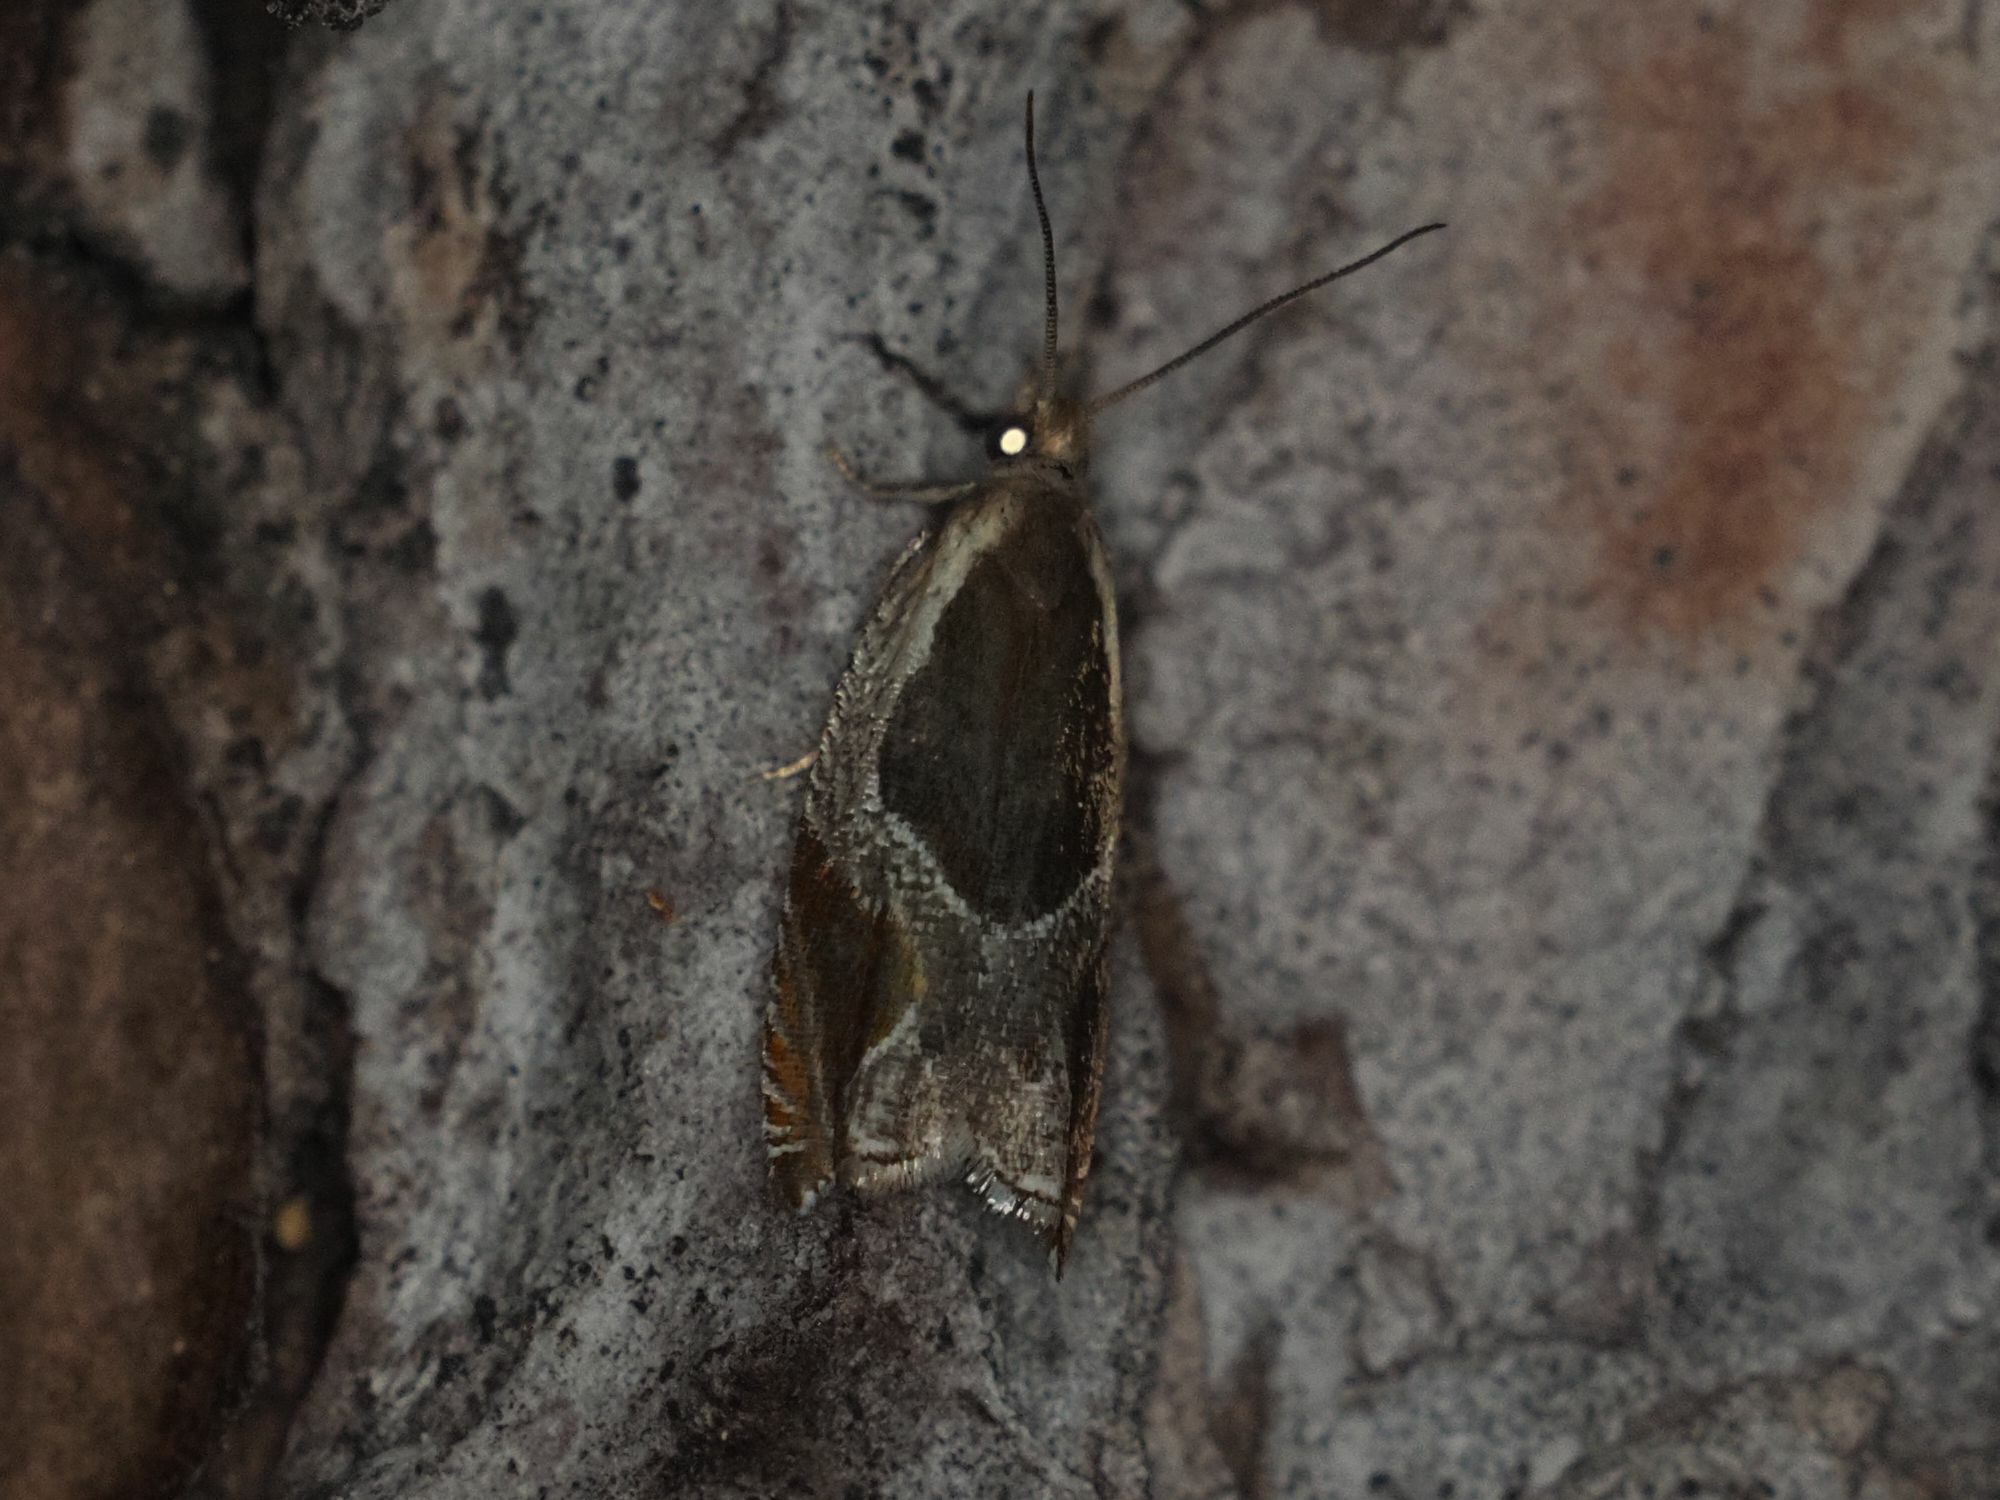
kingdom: Animalia
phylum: Arthropoda
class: Insecta
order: Lepidoptera
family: Tortricidae
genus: Ancylis
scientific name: Ancylis unculana
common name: Buckthorn roller
